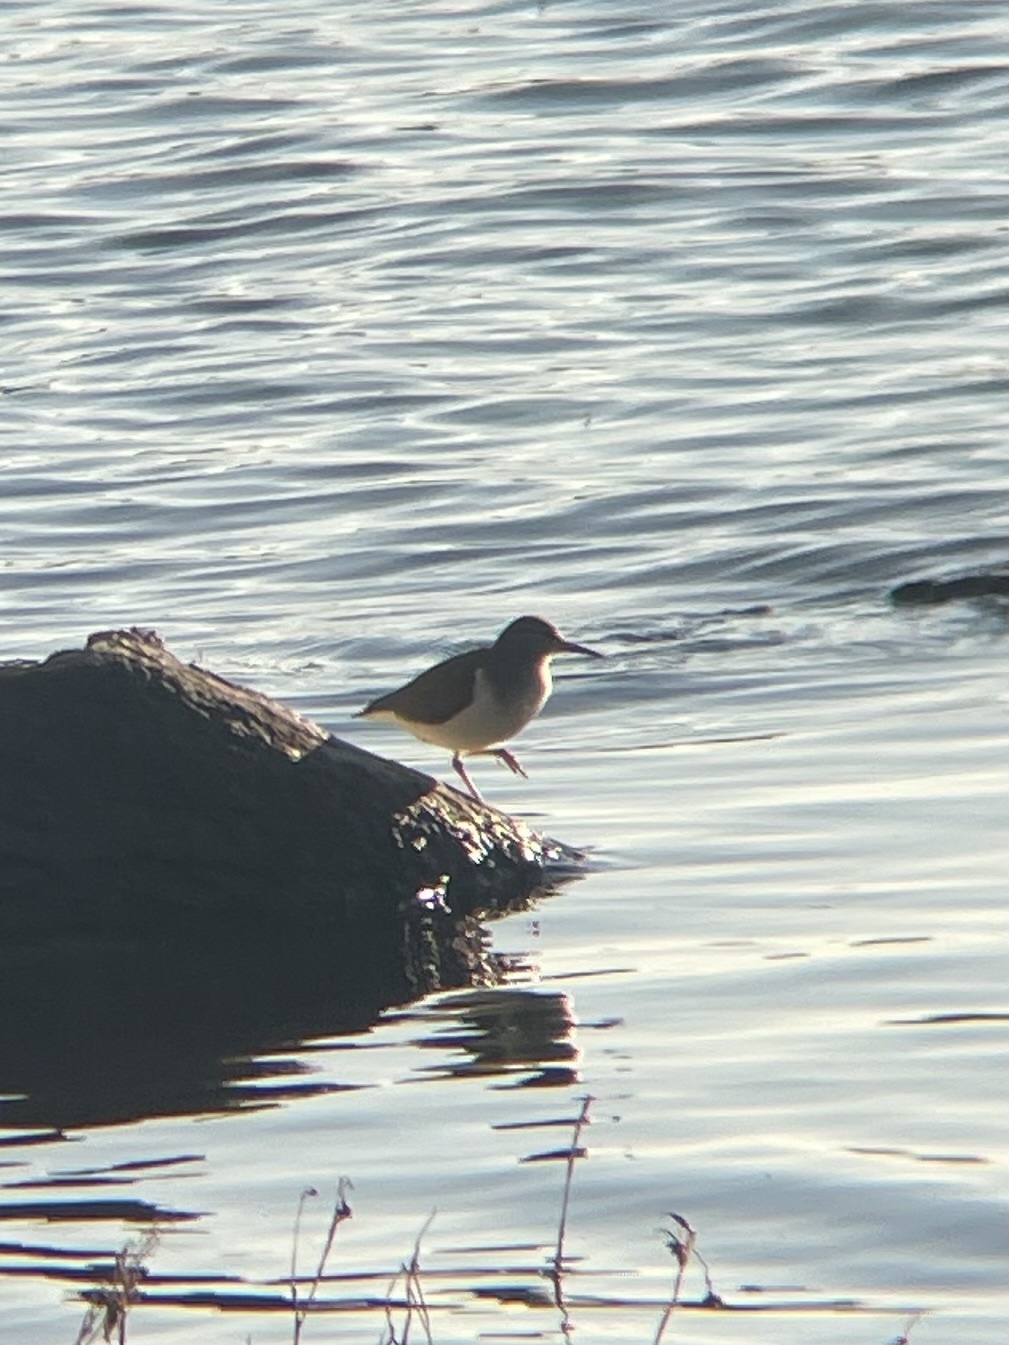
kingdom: Animalia
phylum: Chordata
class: Aves
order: Charadriiformes
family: Scolopacidae
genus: Actitis
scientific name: Actitis macularius
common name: Spotted sandpiper
